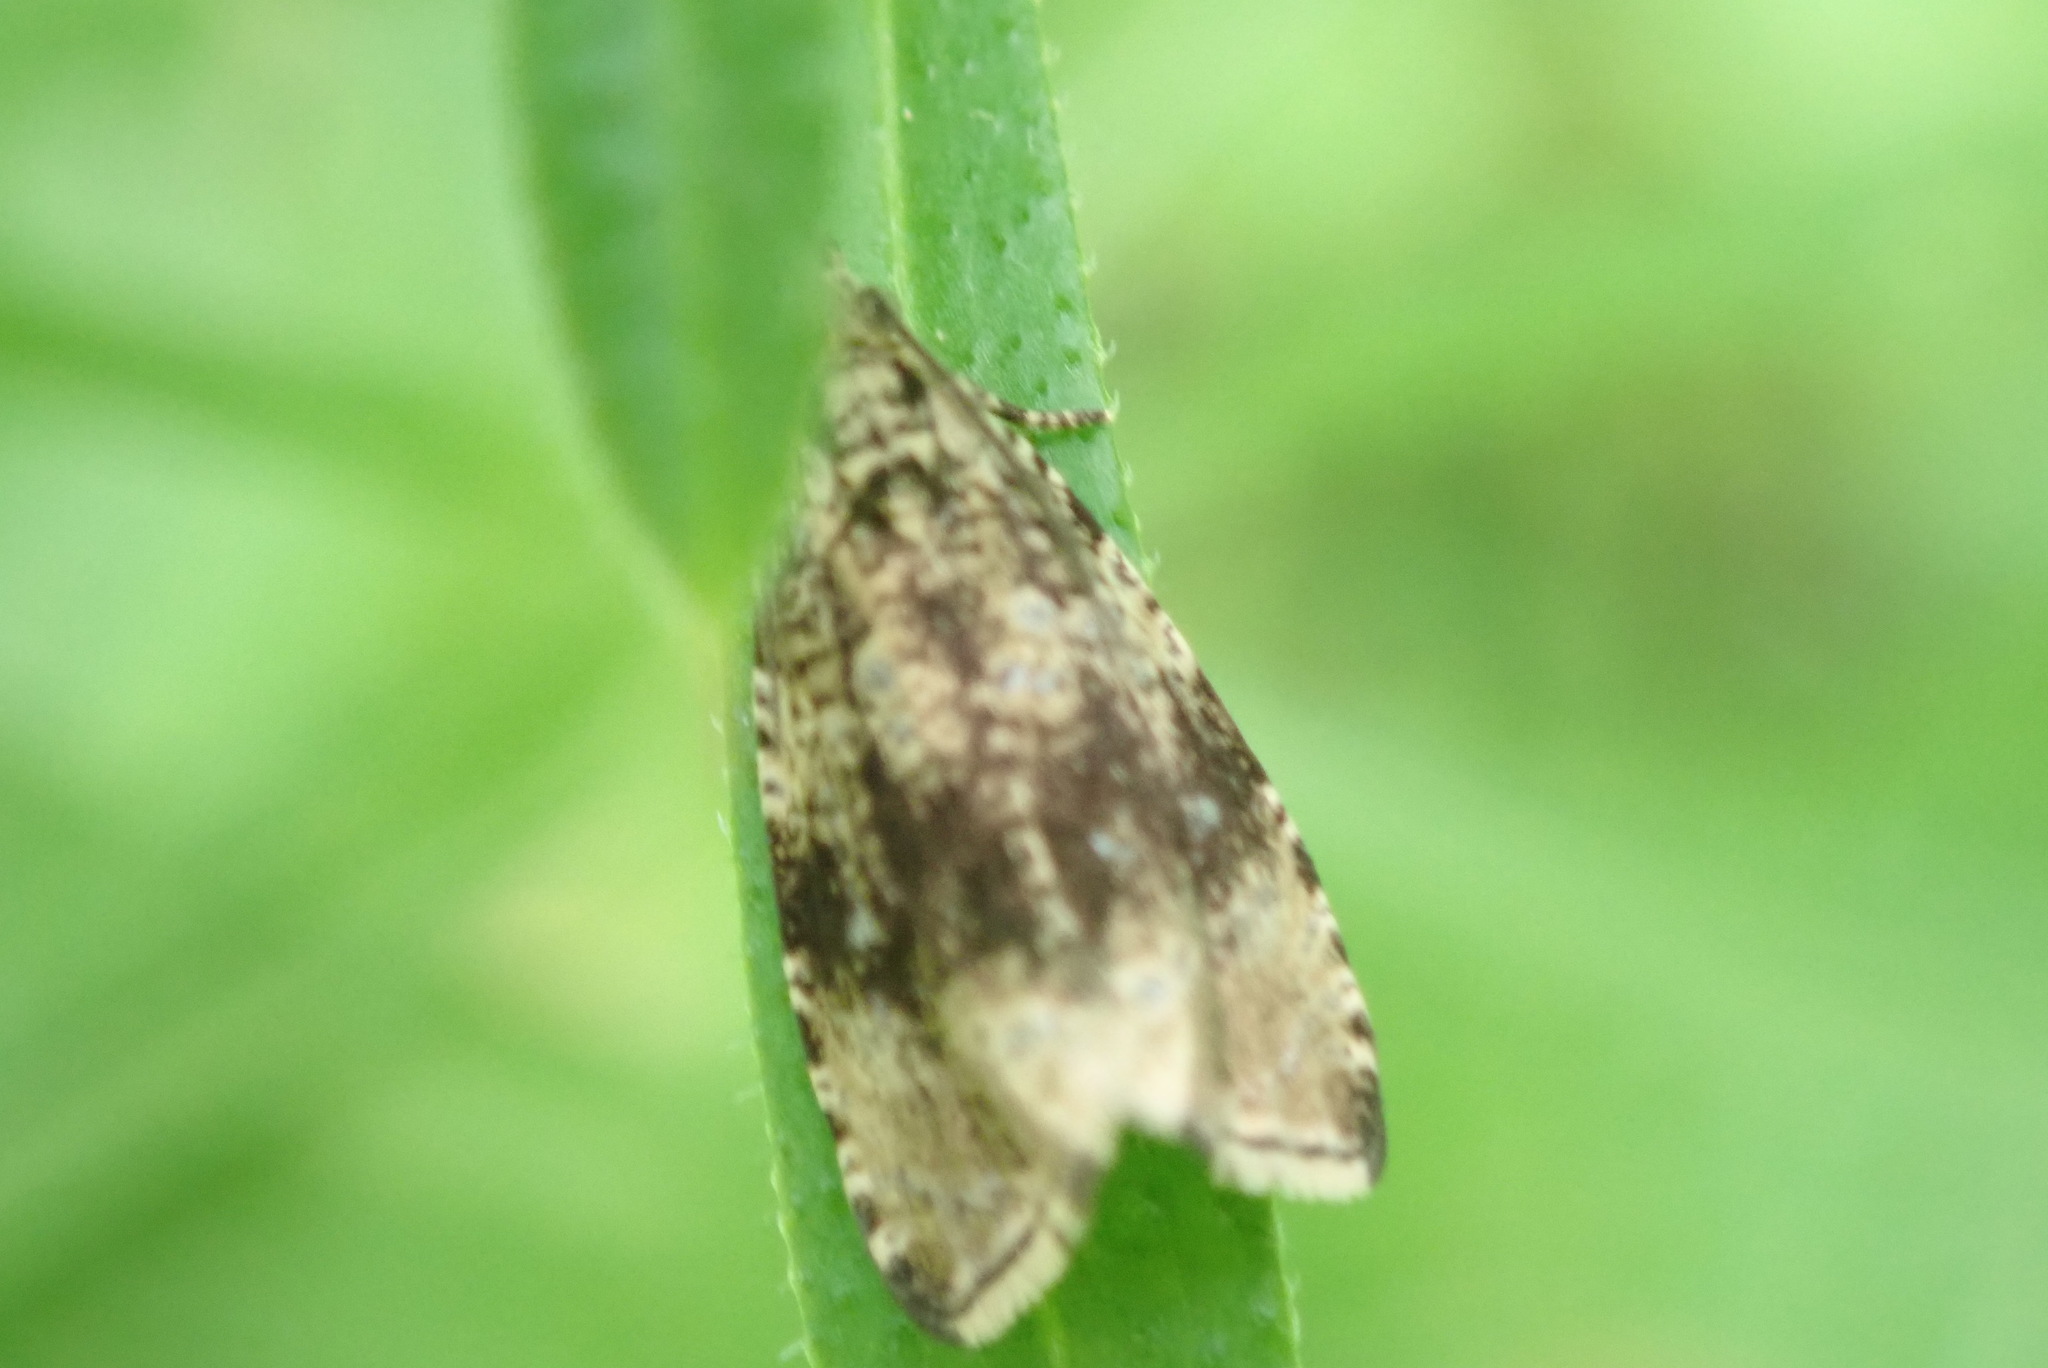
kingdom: Animalia
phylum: Arthropoda
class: Insecta
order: Lepidoptera
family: Tortricidae
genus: Syricoris
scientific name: Syricoris lacunana
